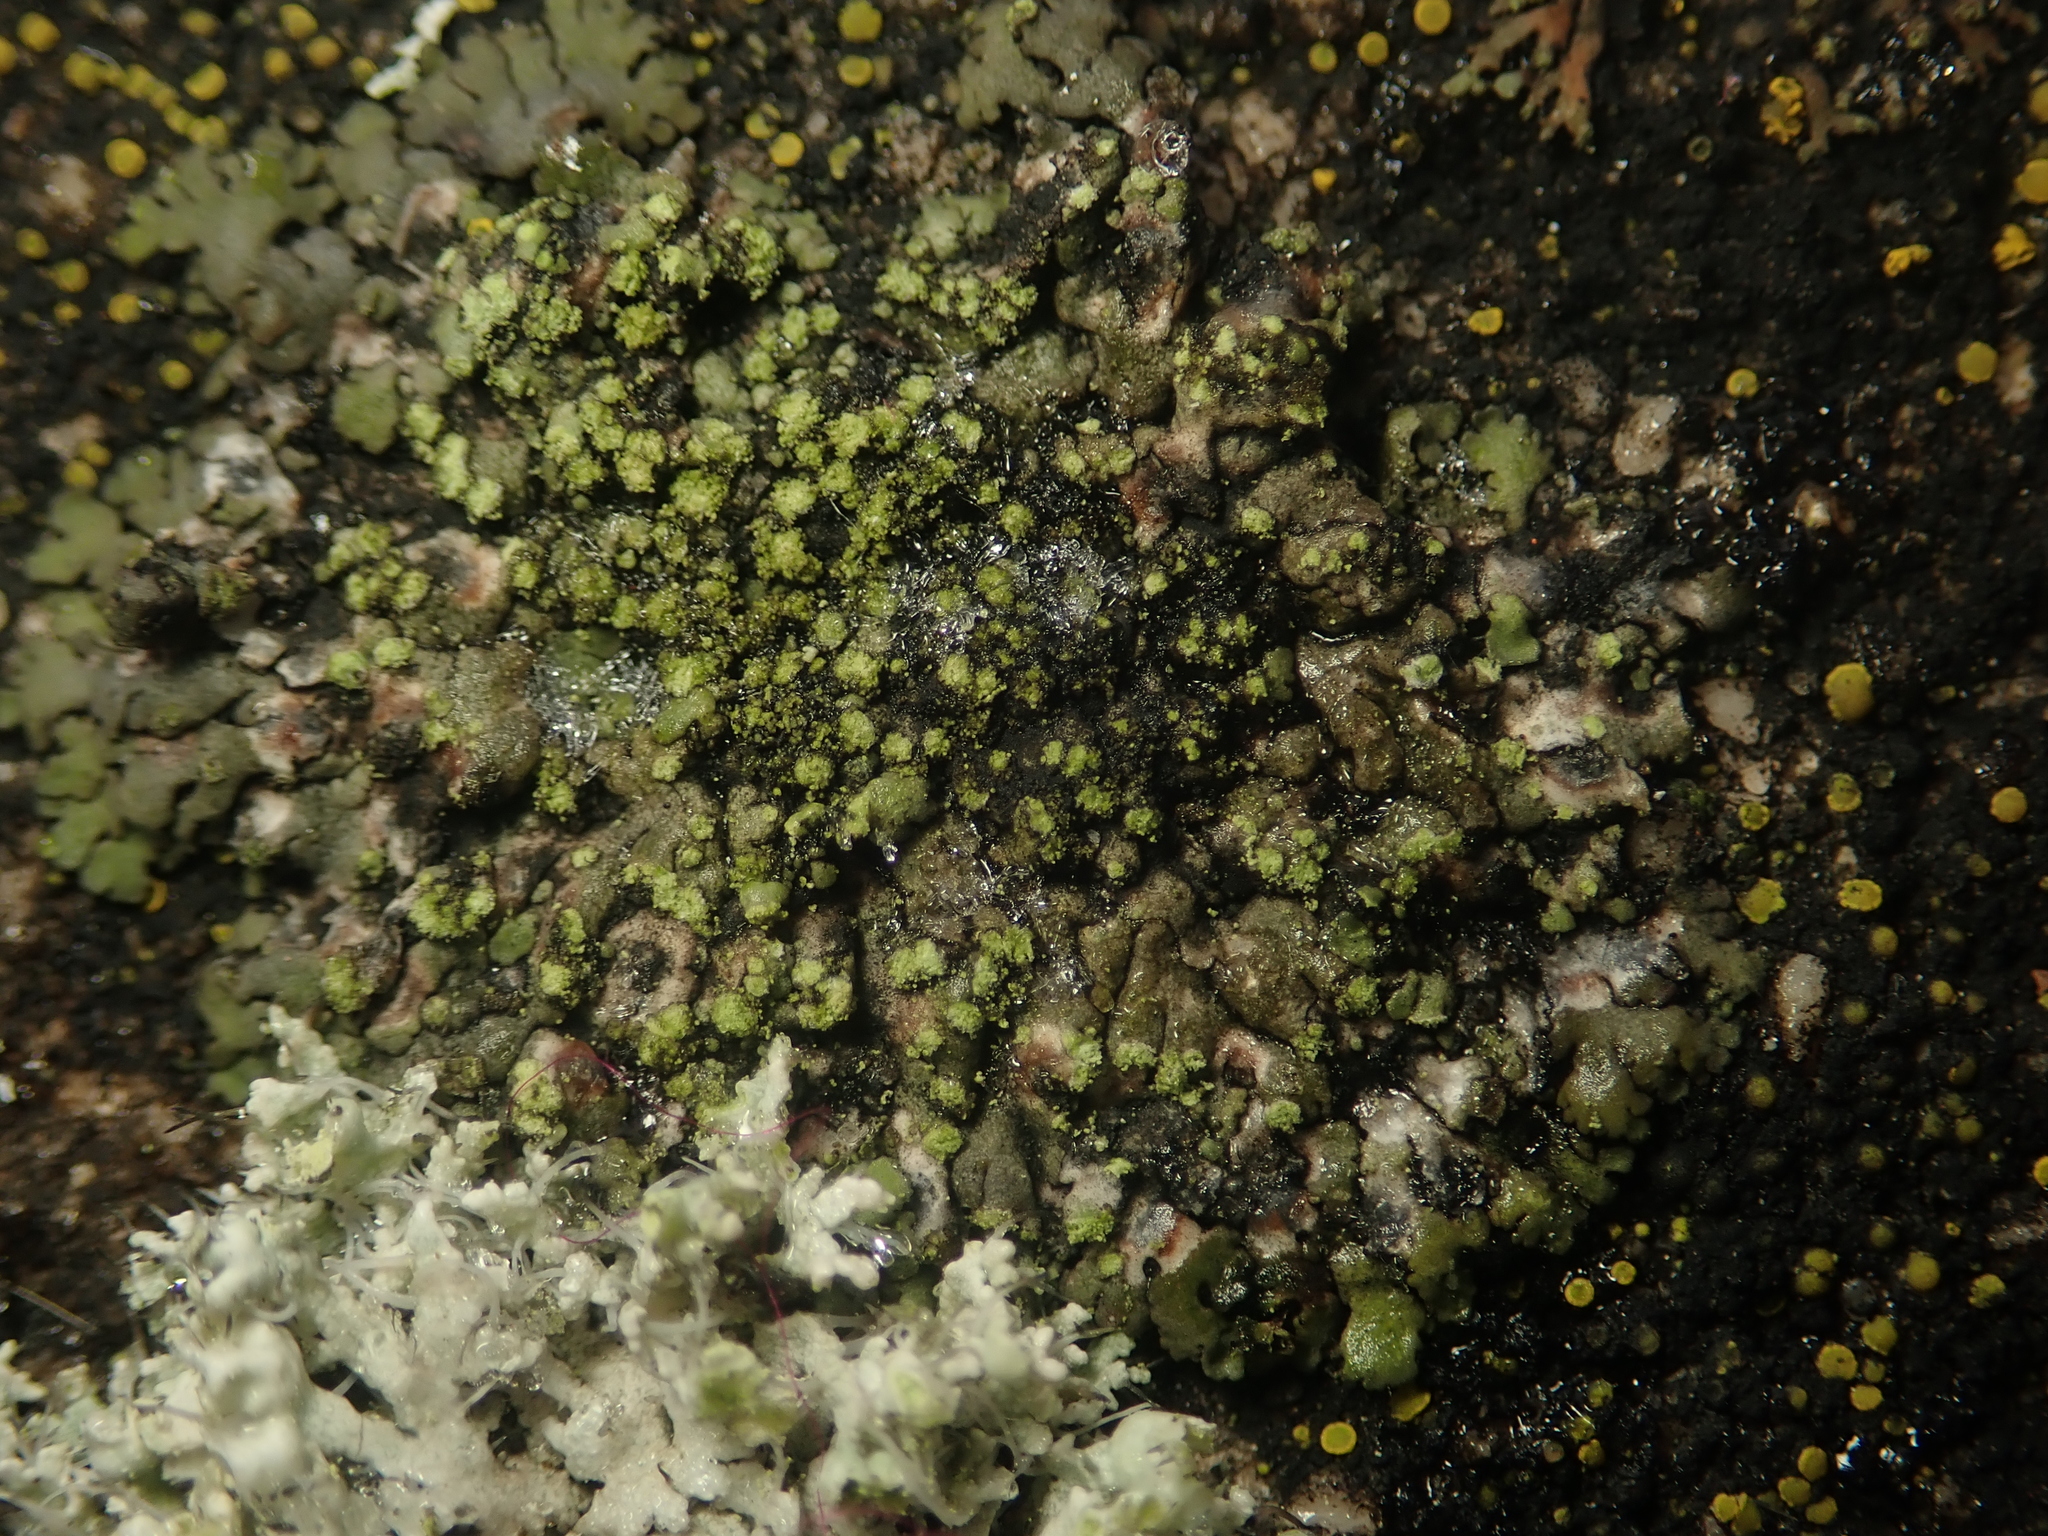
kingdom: Fungi
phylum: Ascomycota
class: Lecanoromycetes
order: Caliciales
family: Physciaceae
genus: Phaeophyscia
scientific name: Phaeophyscia orbicularis
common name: Mealy shadow lichen
